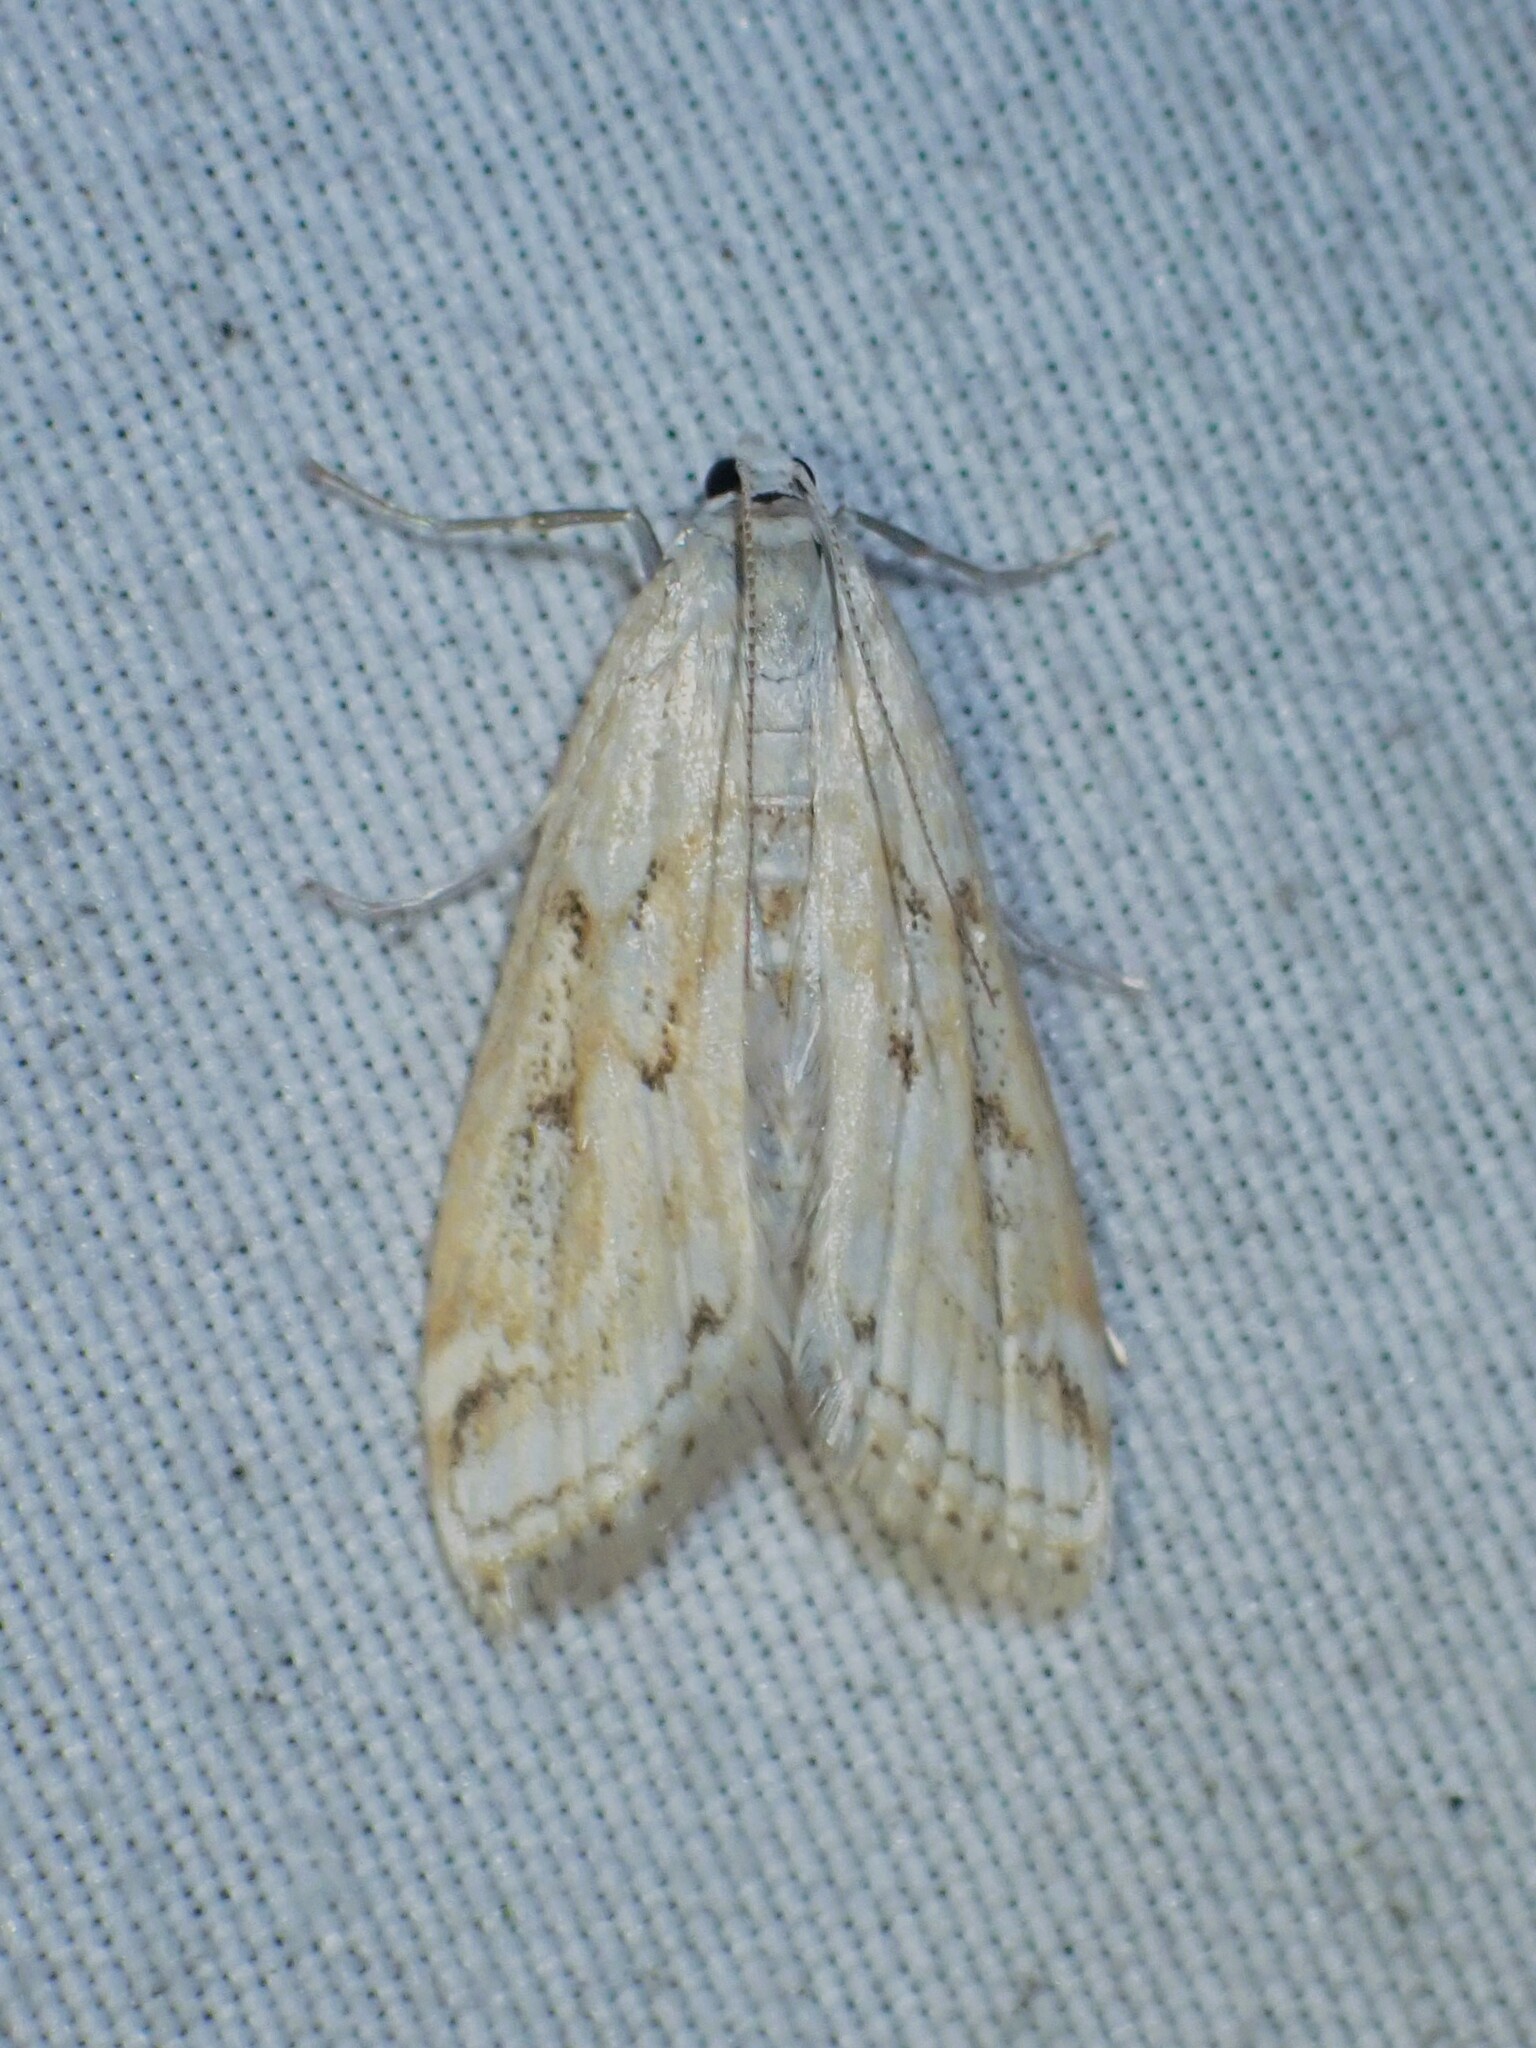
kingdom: Animalia
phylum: Arthropoda
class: Insecta
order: Lepidoptera
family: Crambidae
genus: Parapoynx
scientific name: Parapoynx allionealis
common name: Bladderwort casemaker
